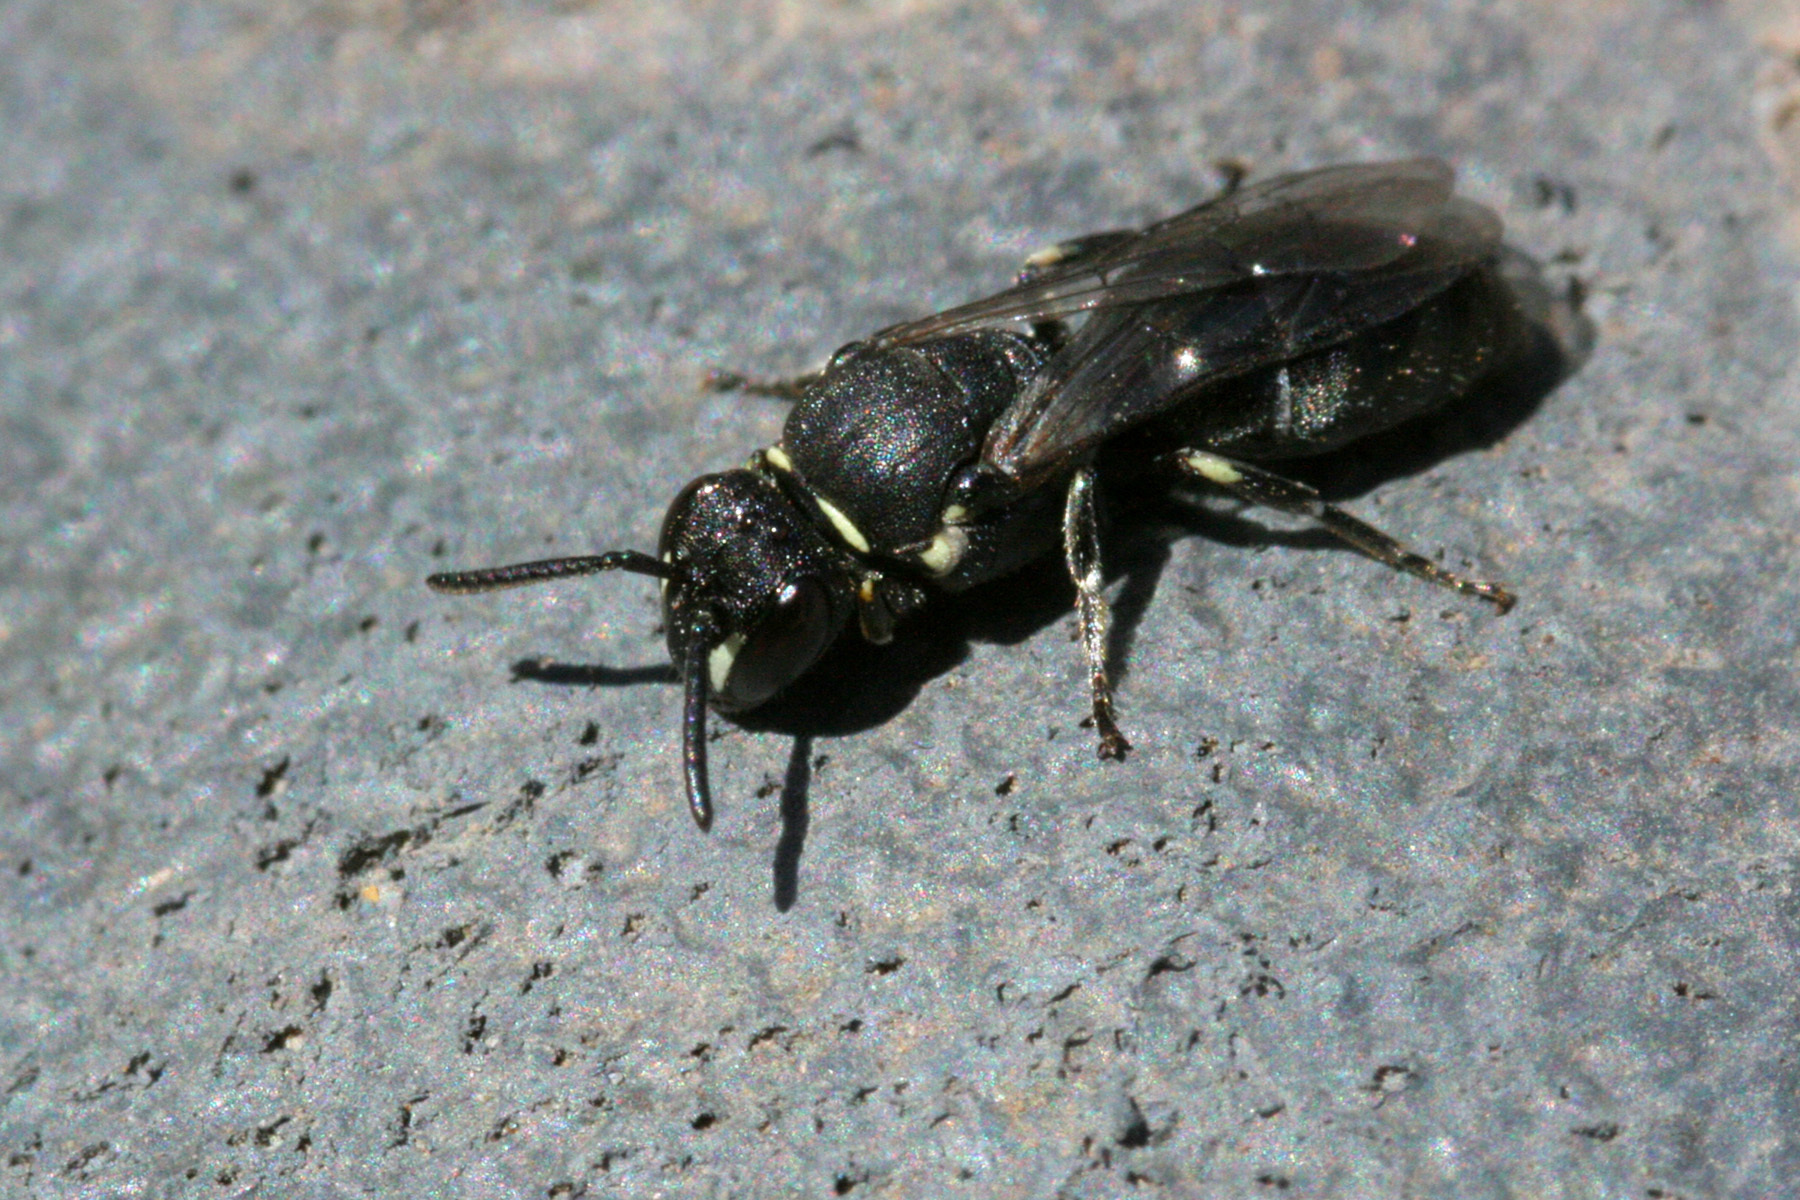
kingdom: Animalia
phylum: Arthropoda
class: Insecta
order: Hymenoptera
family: Colletidae
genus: Hylaeus
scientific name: Hylaeus
